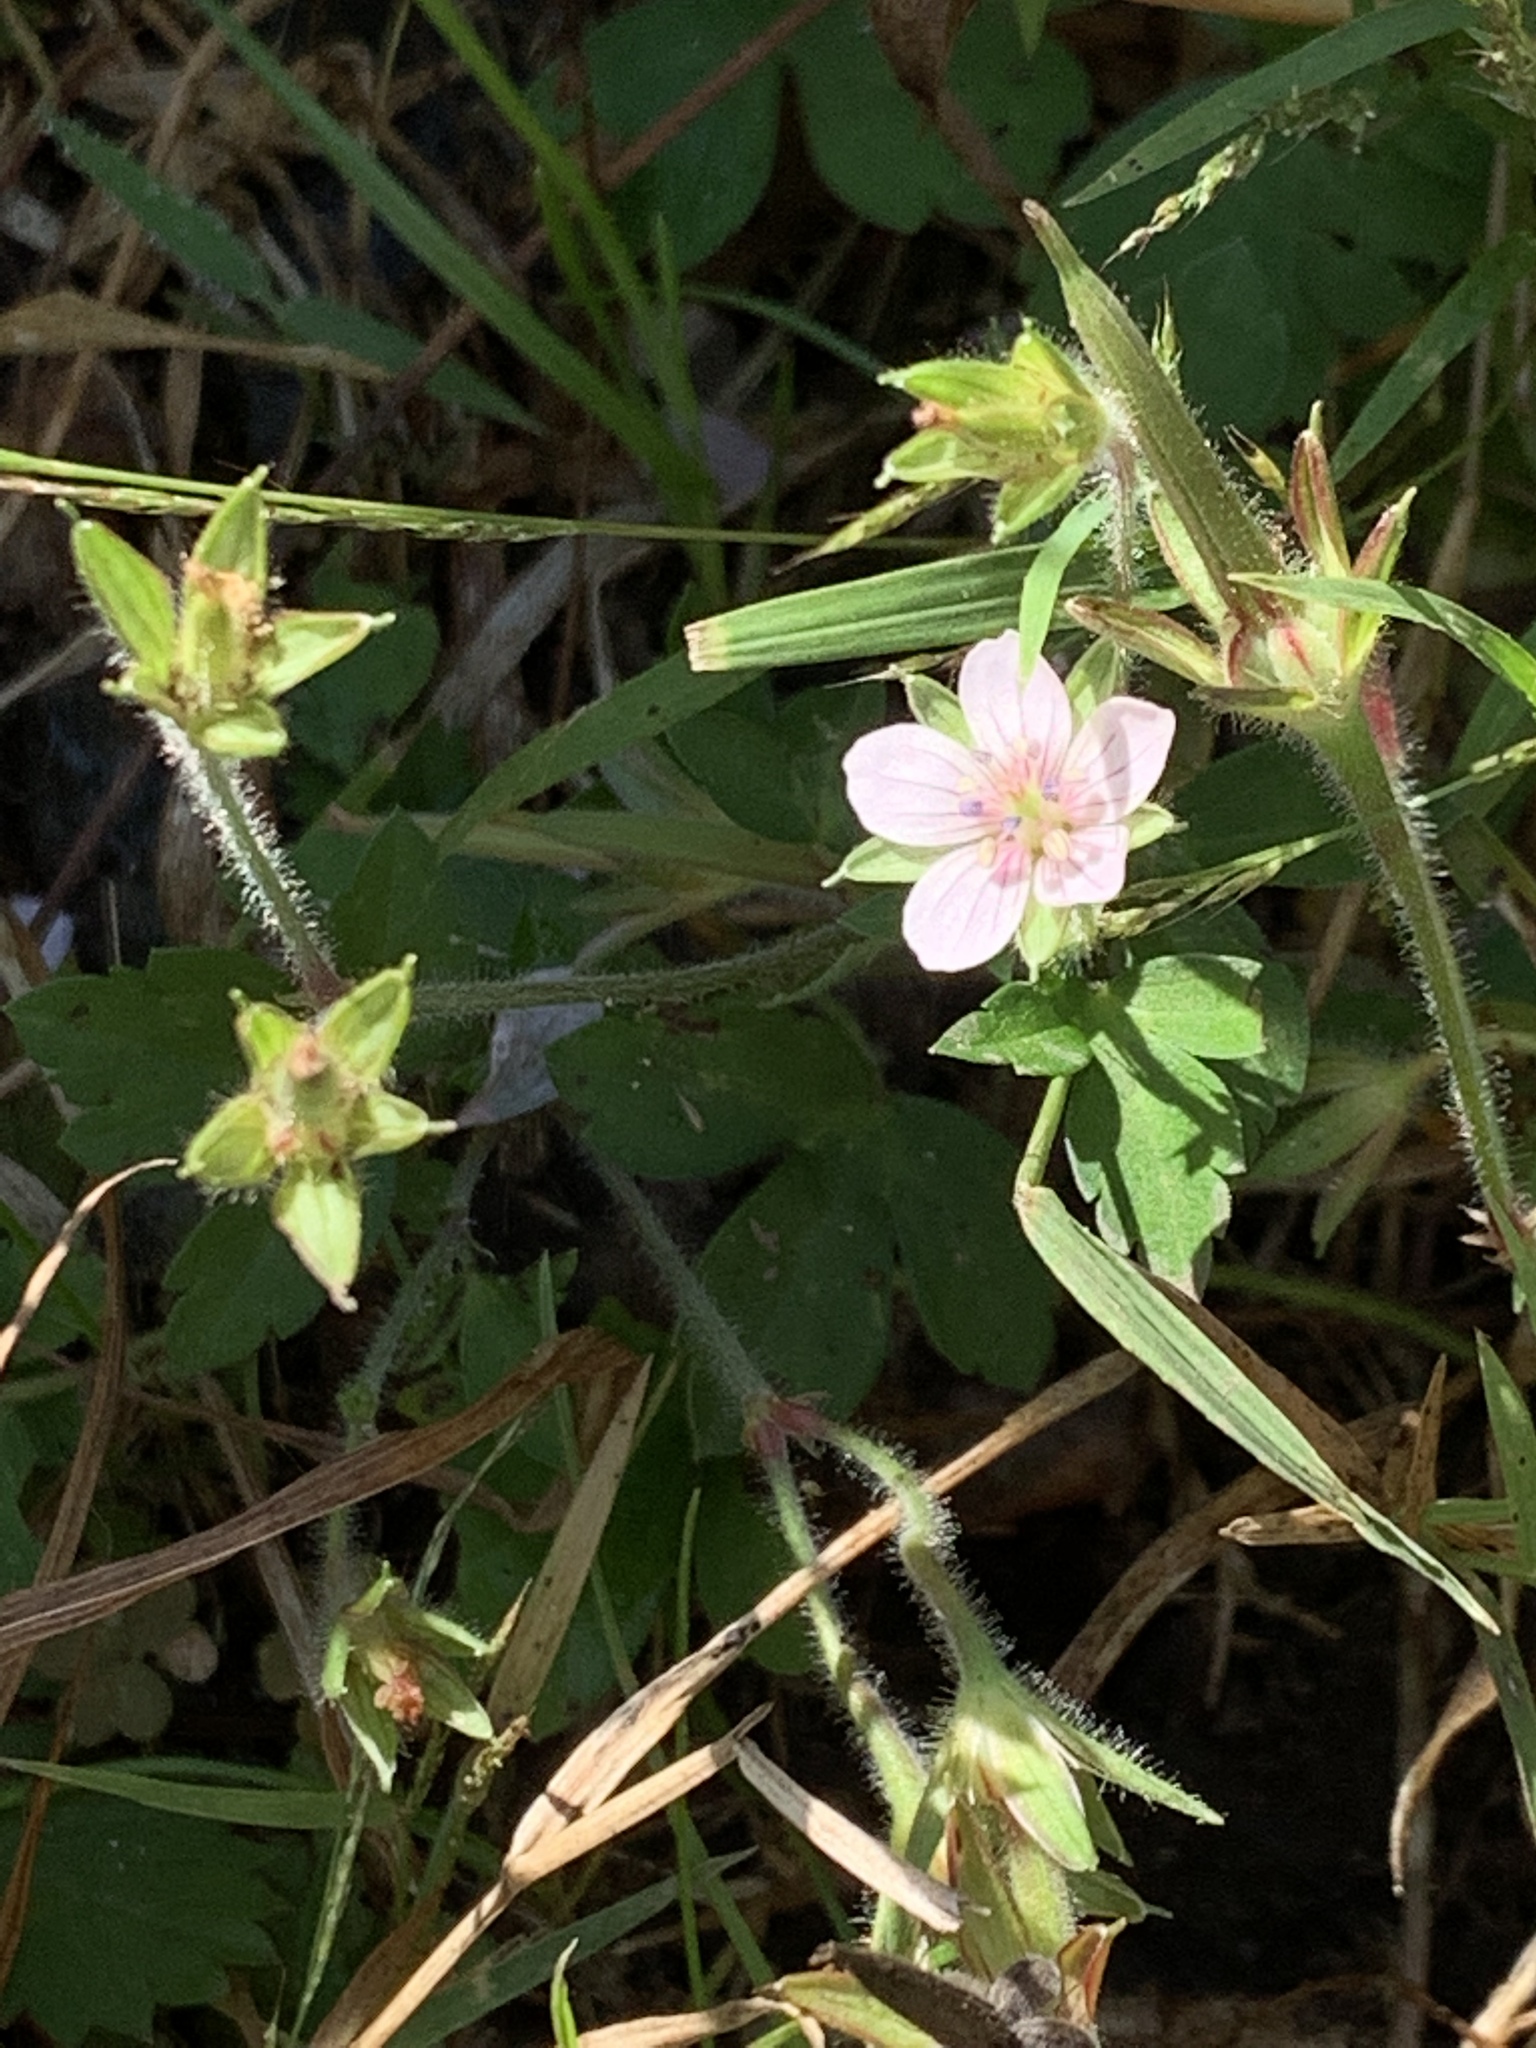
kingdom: Plantae
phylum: Tracheophyta
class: Magnoliopsida
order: Geraniales
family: Geraniaceae
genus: Geranium
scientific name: Geranium thunbergii
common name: Dewdrop crane's-bill
